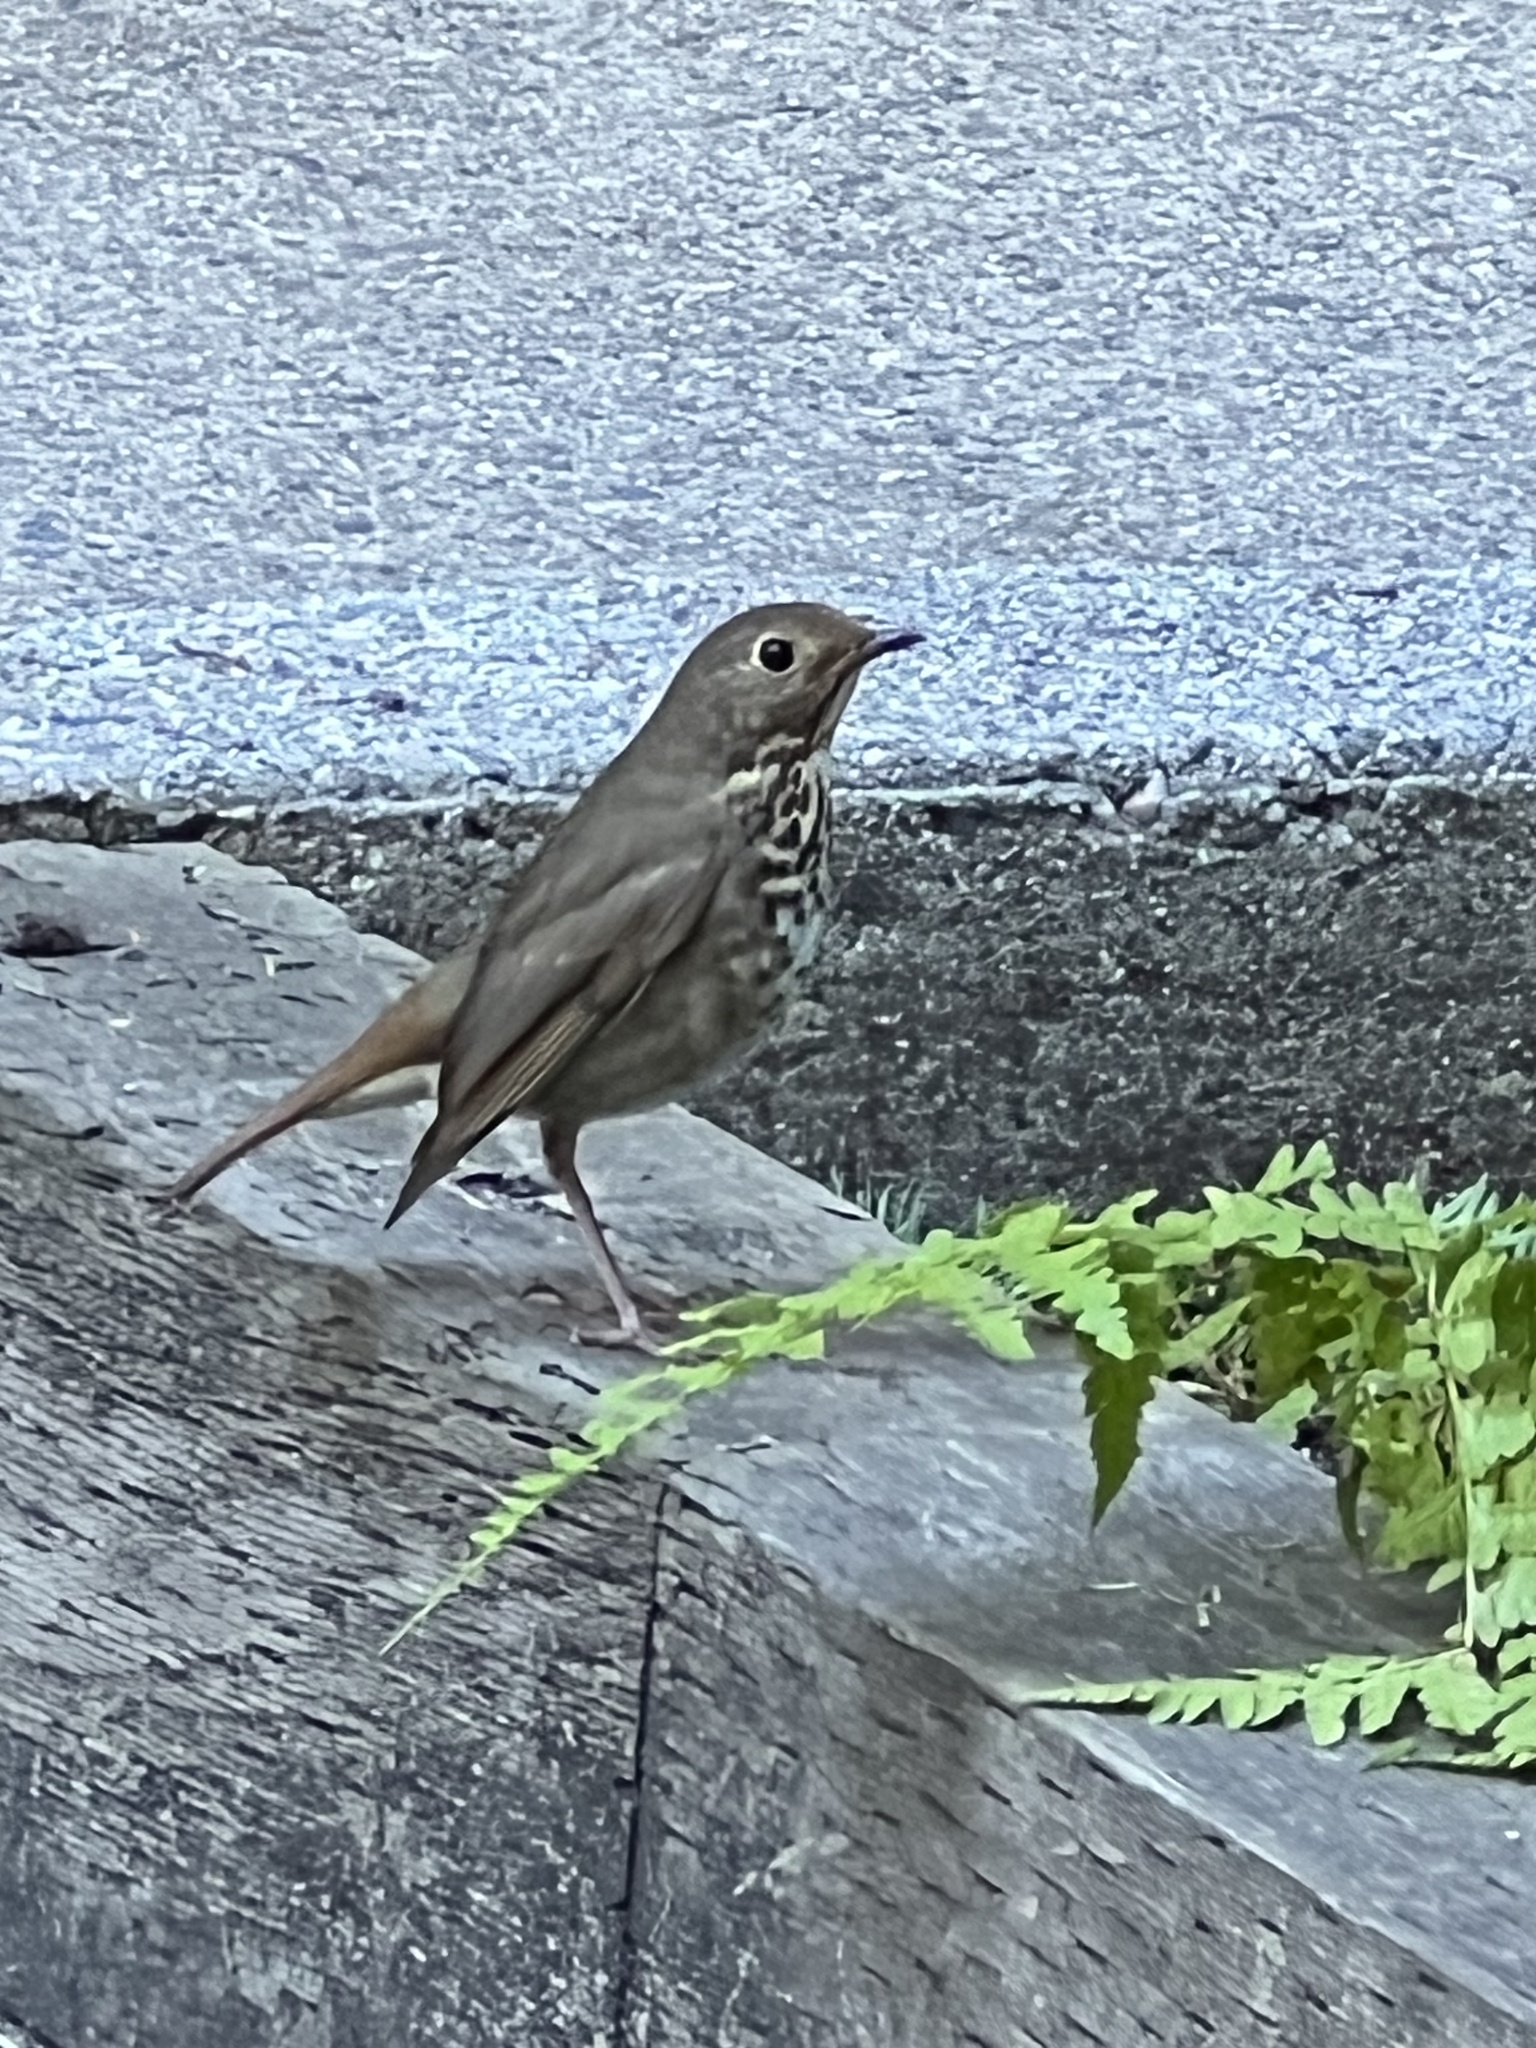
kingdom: Animalia
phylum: Chordata
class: Aves
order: Passeriformes
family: Turdidae
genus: Catharus
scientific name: Catharus guttatus
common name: Hermit thrush
